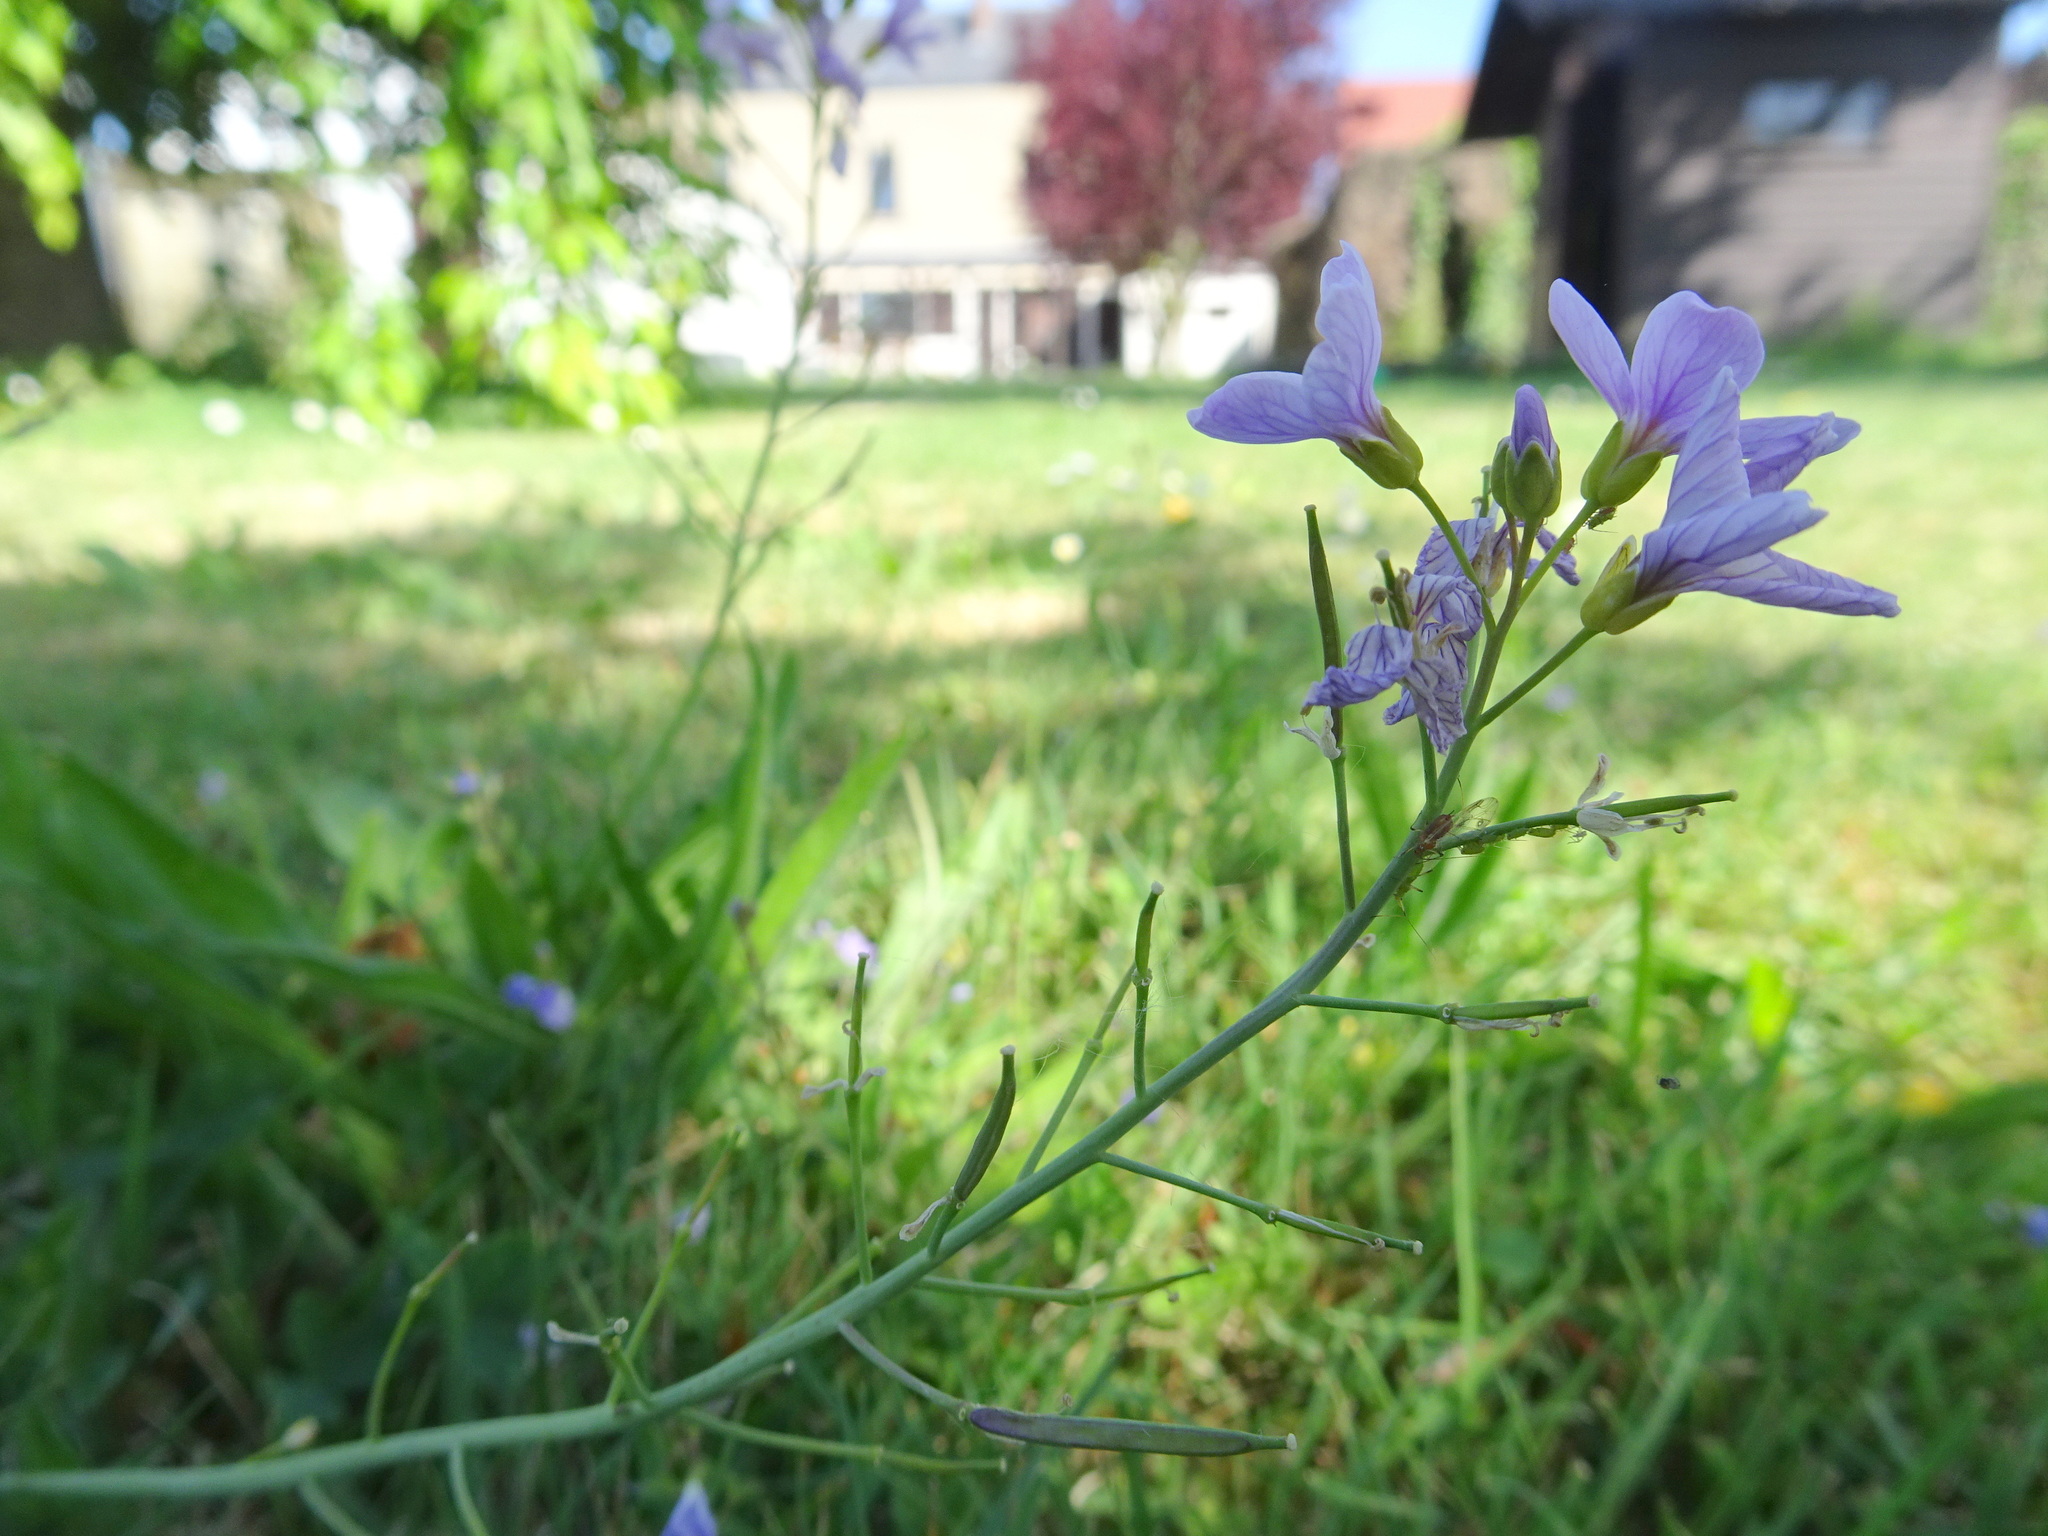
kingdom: Plantae
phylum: Tracheophyta
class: Magnoliopsida
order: Brassicales
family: Brassicaceae
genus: Cardamine
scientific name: Cardamine pratensis
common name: Cuckoo flower
